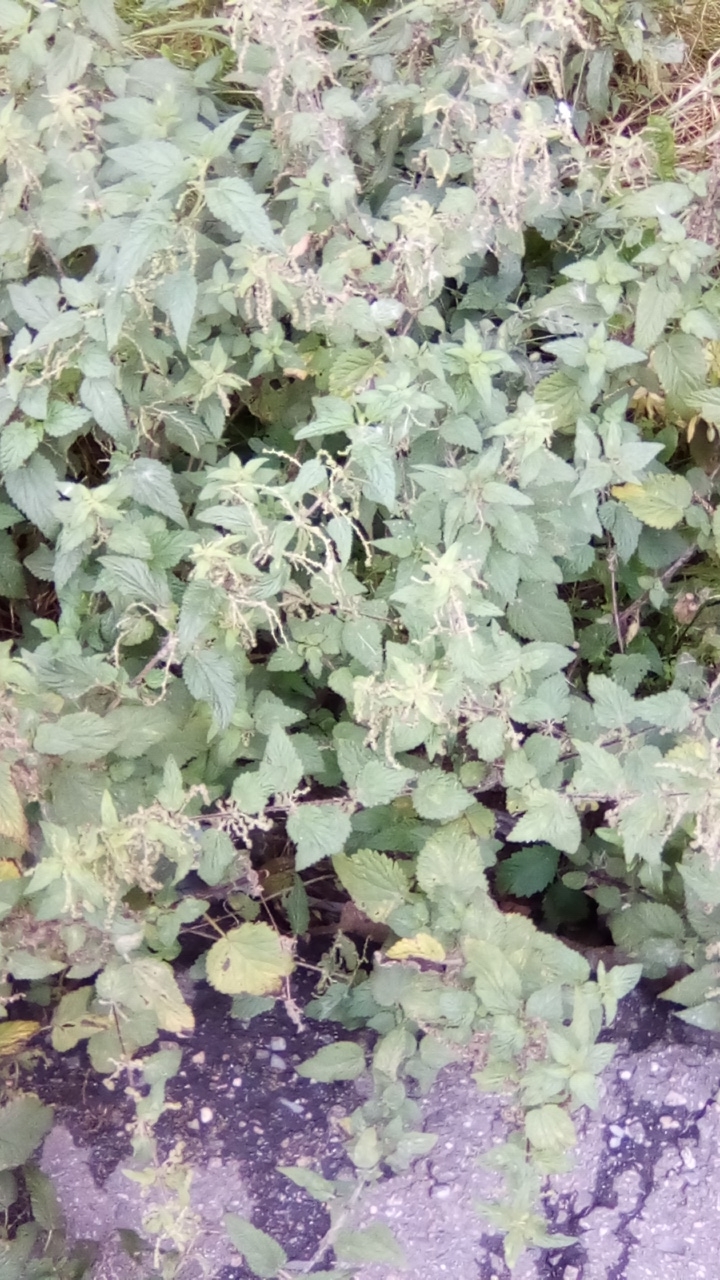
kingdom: Plantae
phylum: Tracheophyta
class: Magnoliopsida
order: Rosales
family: Urticaceae
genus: Urtica
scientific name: Urtica dioica
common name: Common nettle
